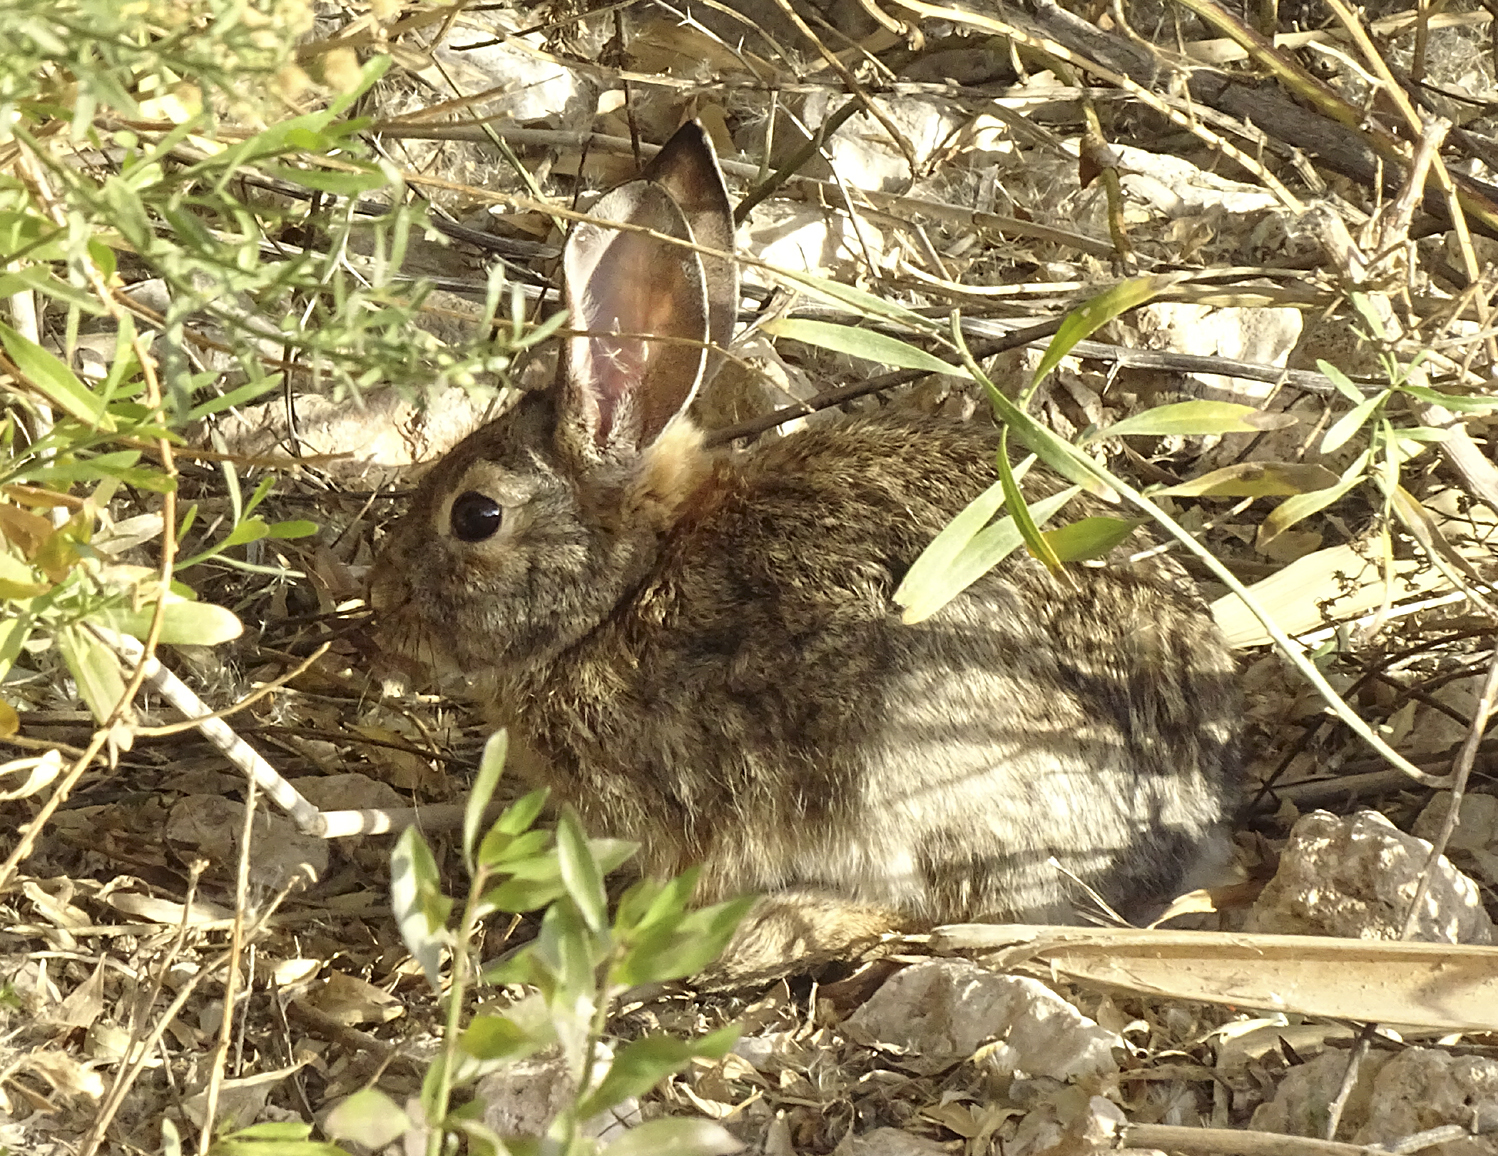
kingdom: Animalia
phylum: Chordata
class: Mammalia
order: Lagomorpha
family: Leporidae
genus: Sylvilagus
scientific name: Sylvilagus audubonii
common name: Desert cottontail
